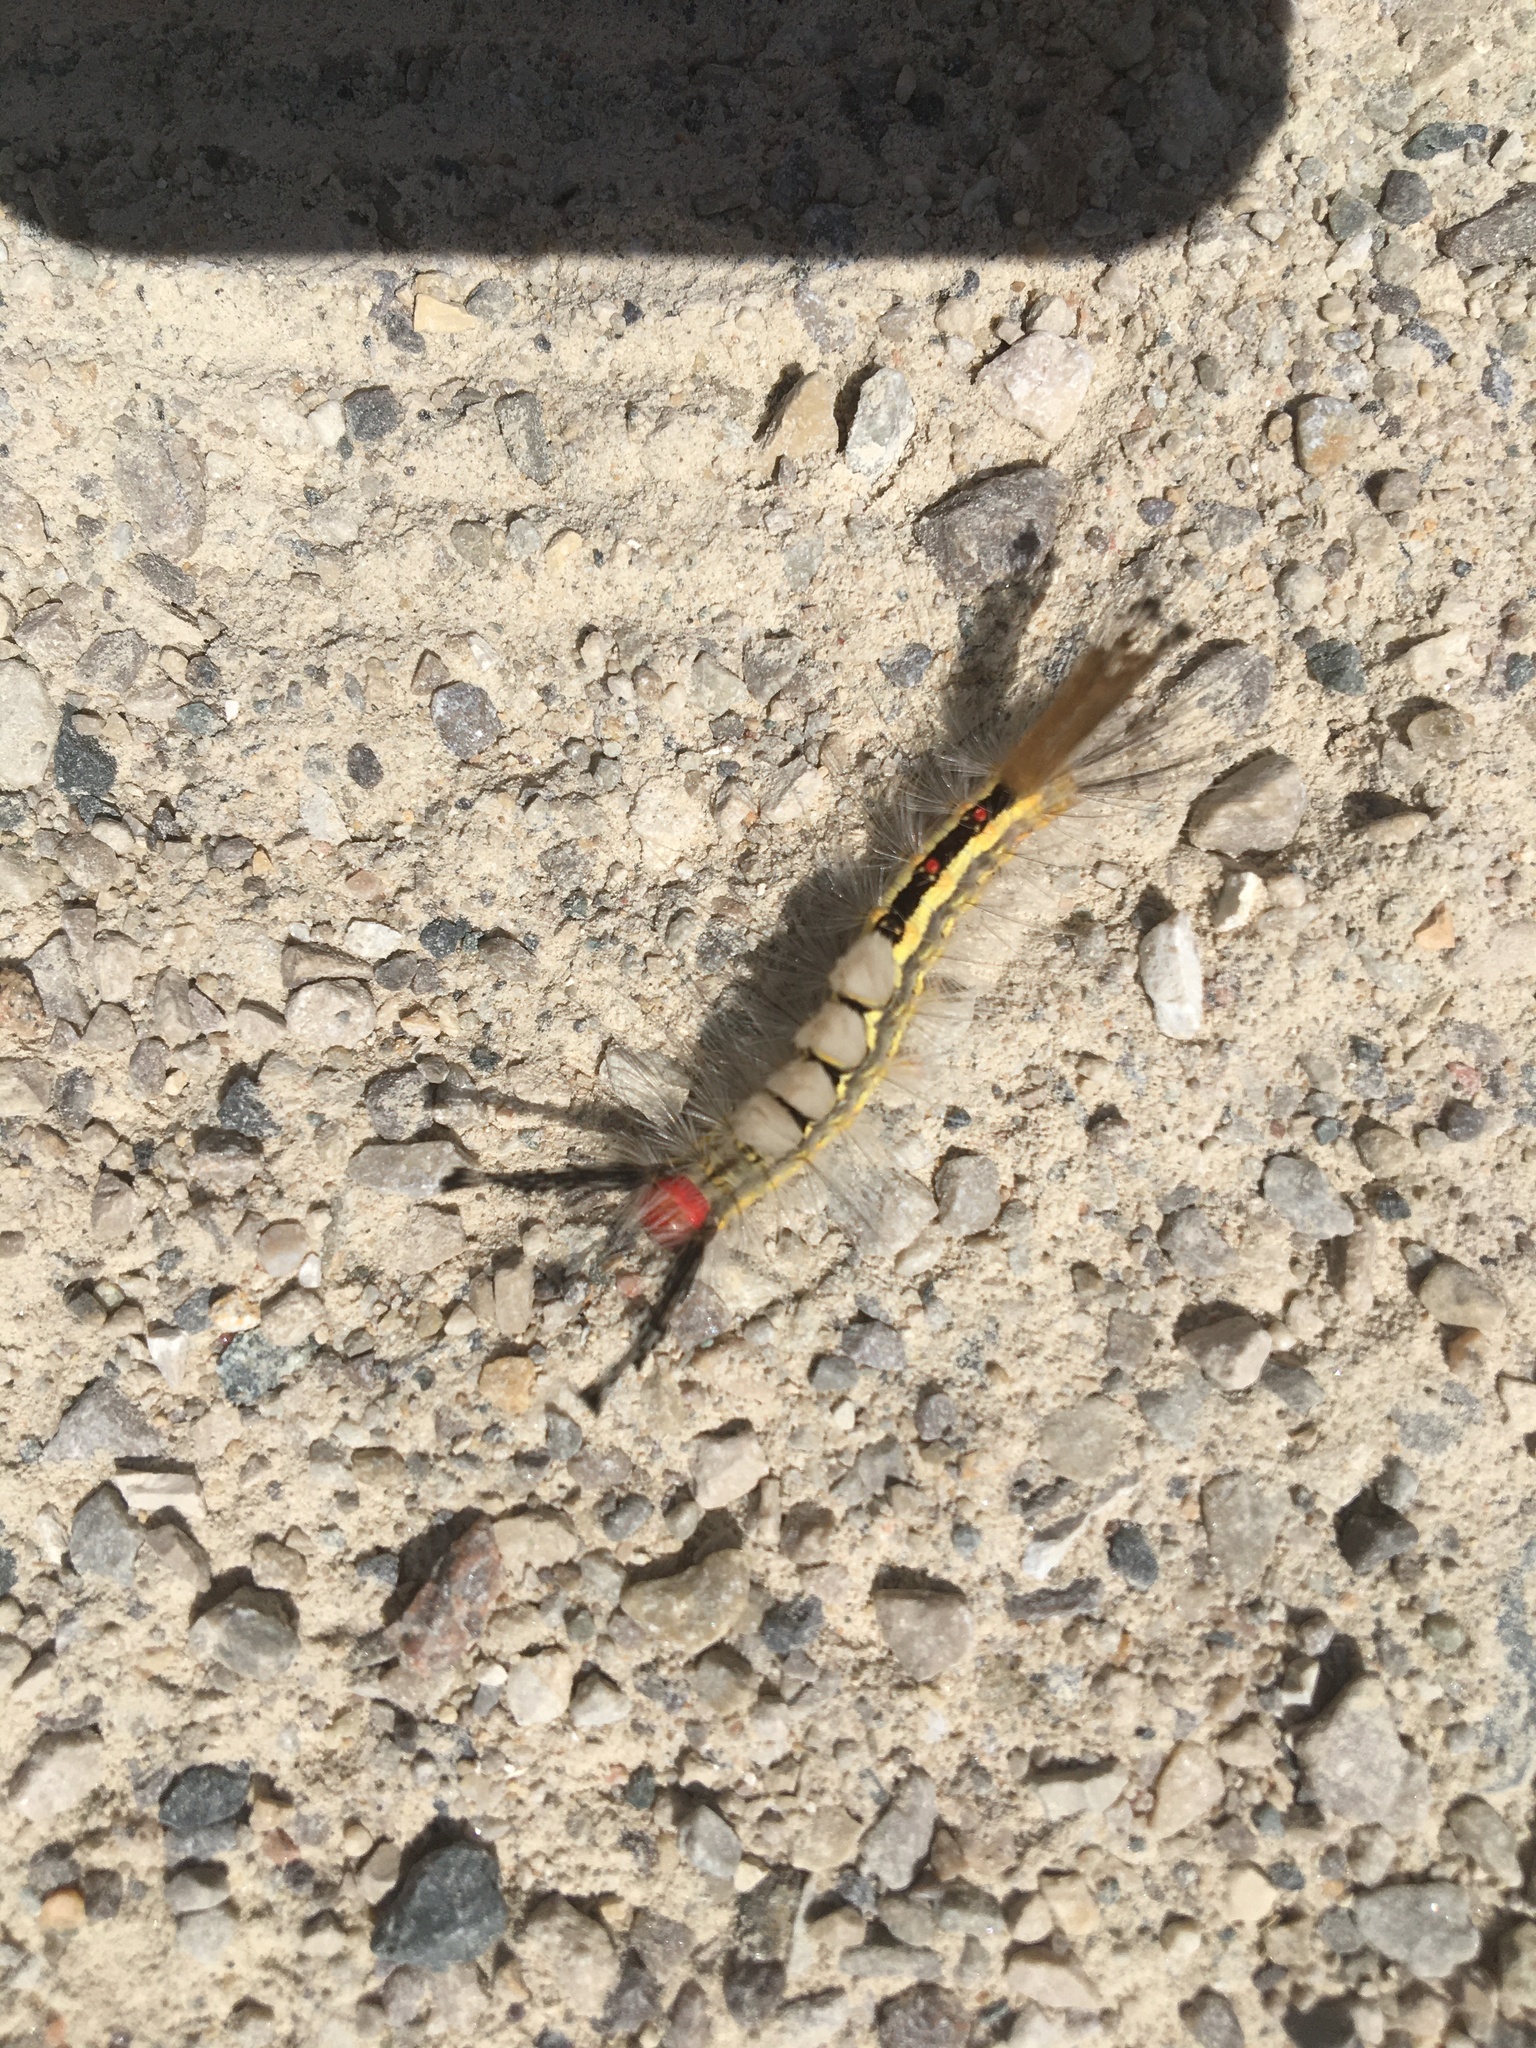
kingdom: Animalia
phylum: Arthropoda
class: Insecta
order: Lepidoptera
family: Erebidae
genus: Orgyia
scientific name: Orgyia leucostigma
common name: White-marked tussock moth
